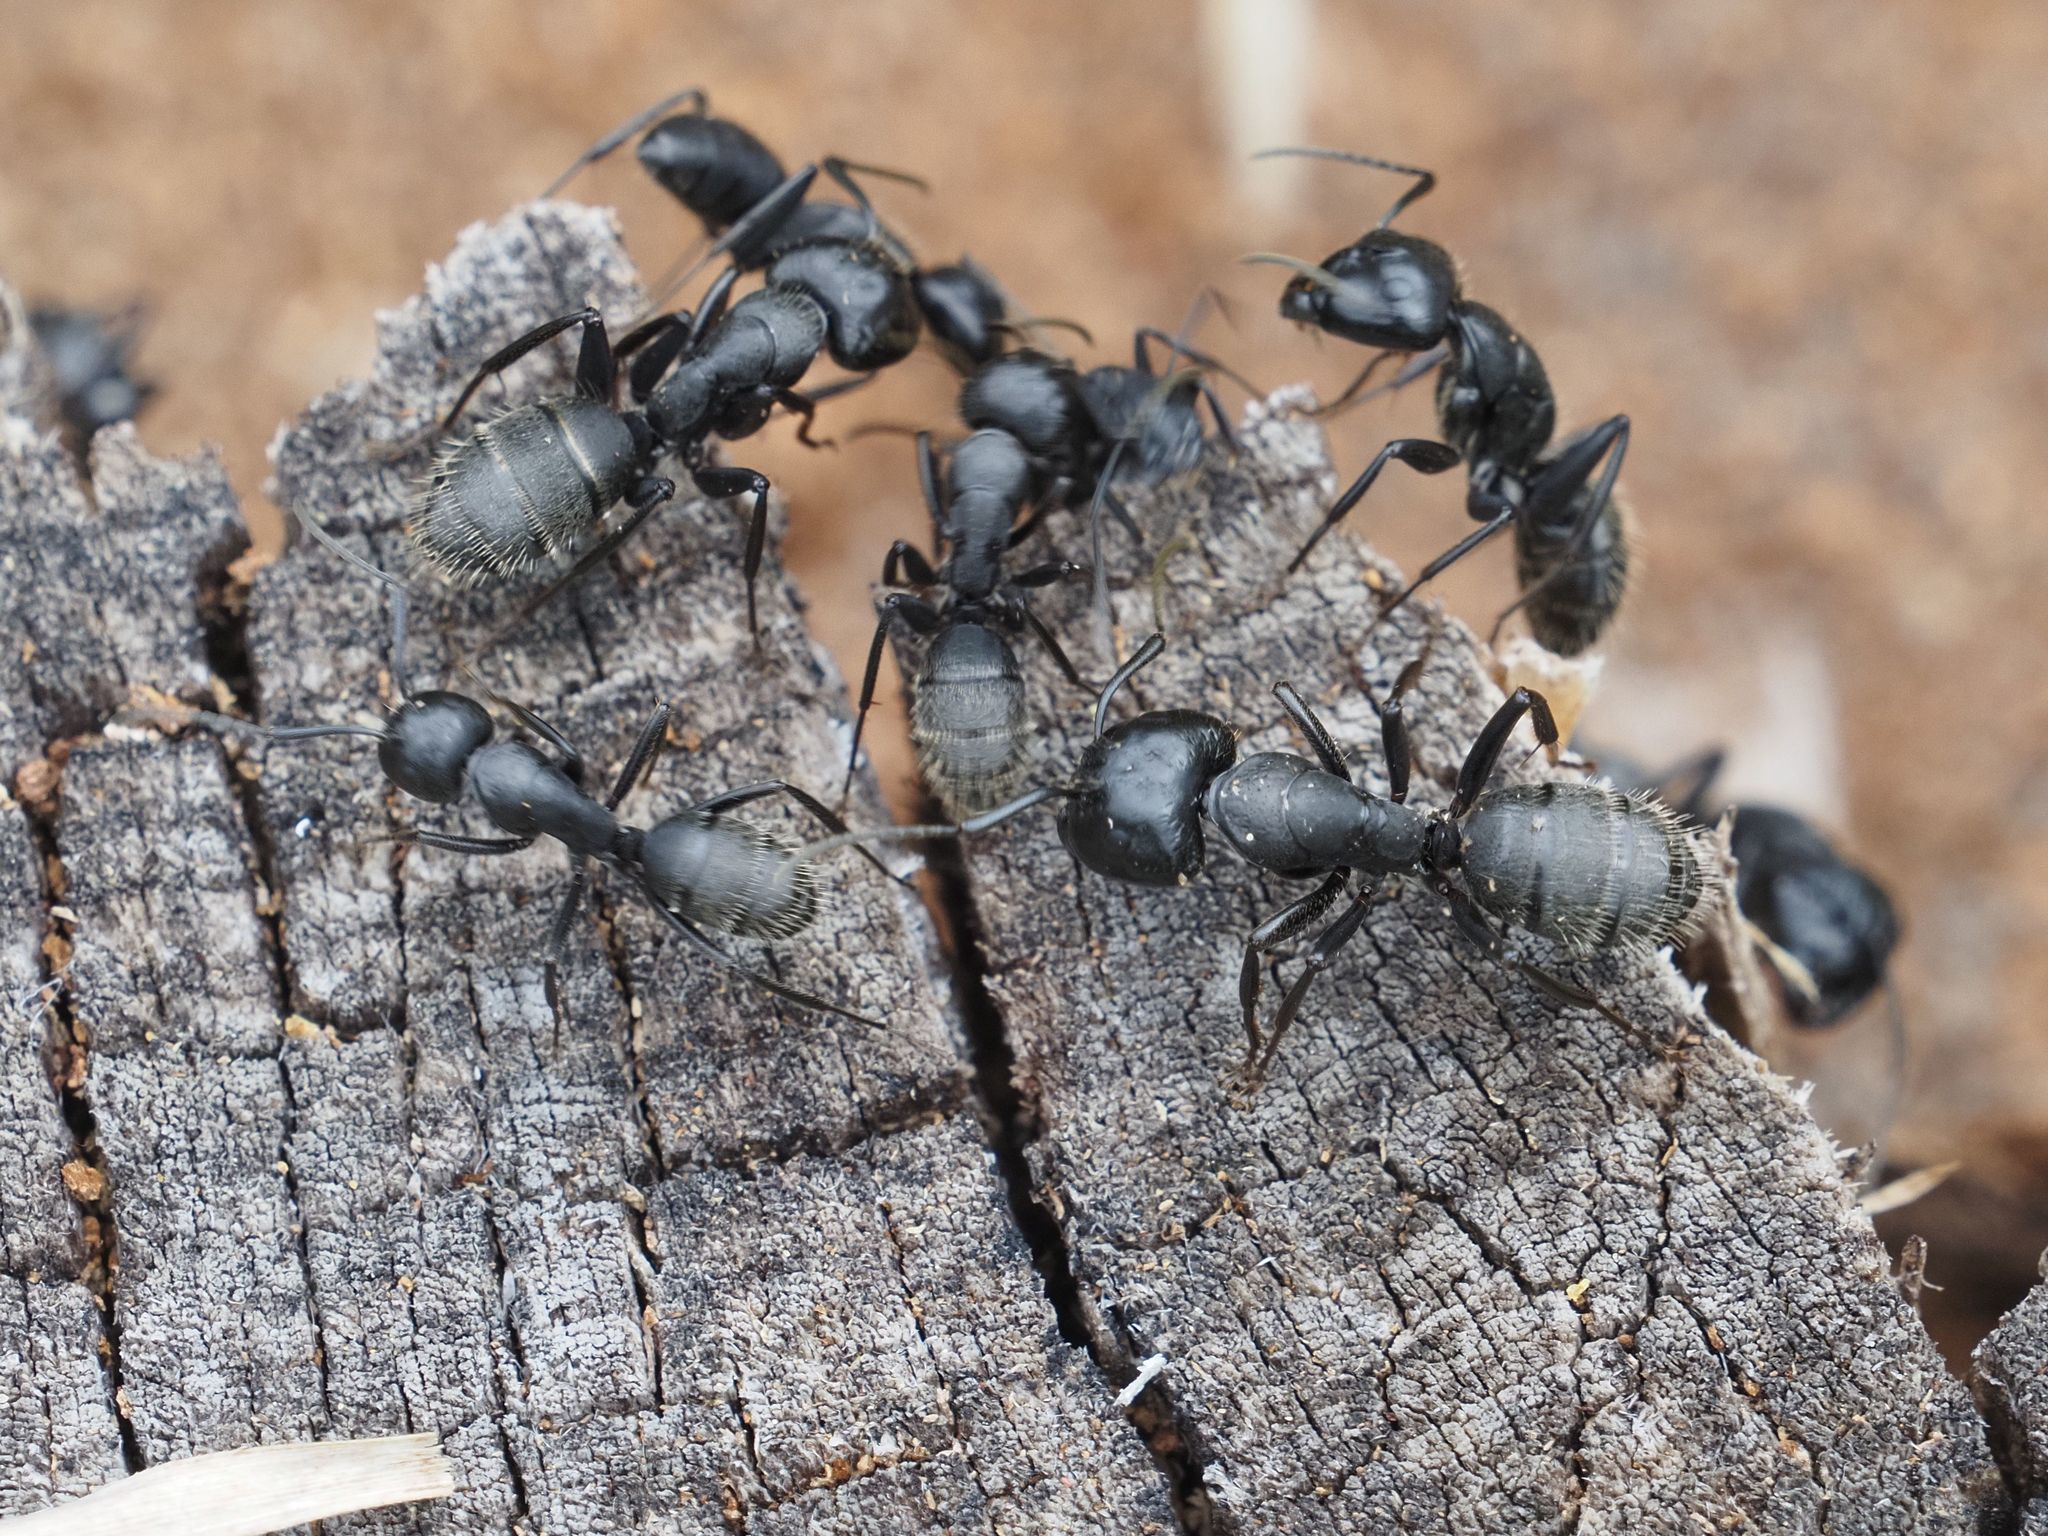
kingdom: Animalia
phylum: Arthropoda
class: Insecta
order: Hymenoptera
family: Formicidae
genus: Camponotus
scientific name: Camponotus vagus
